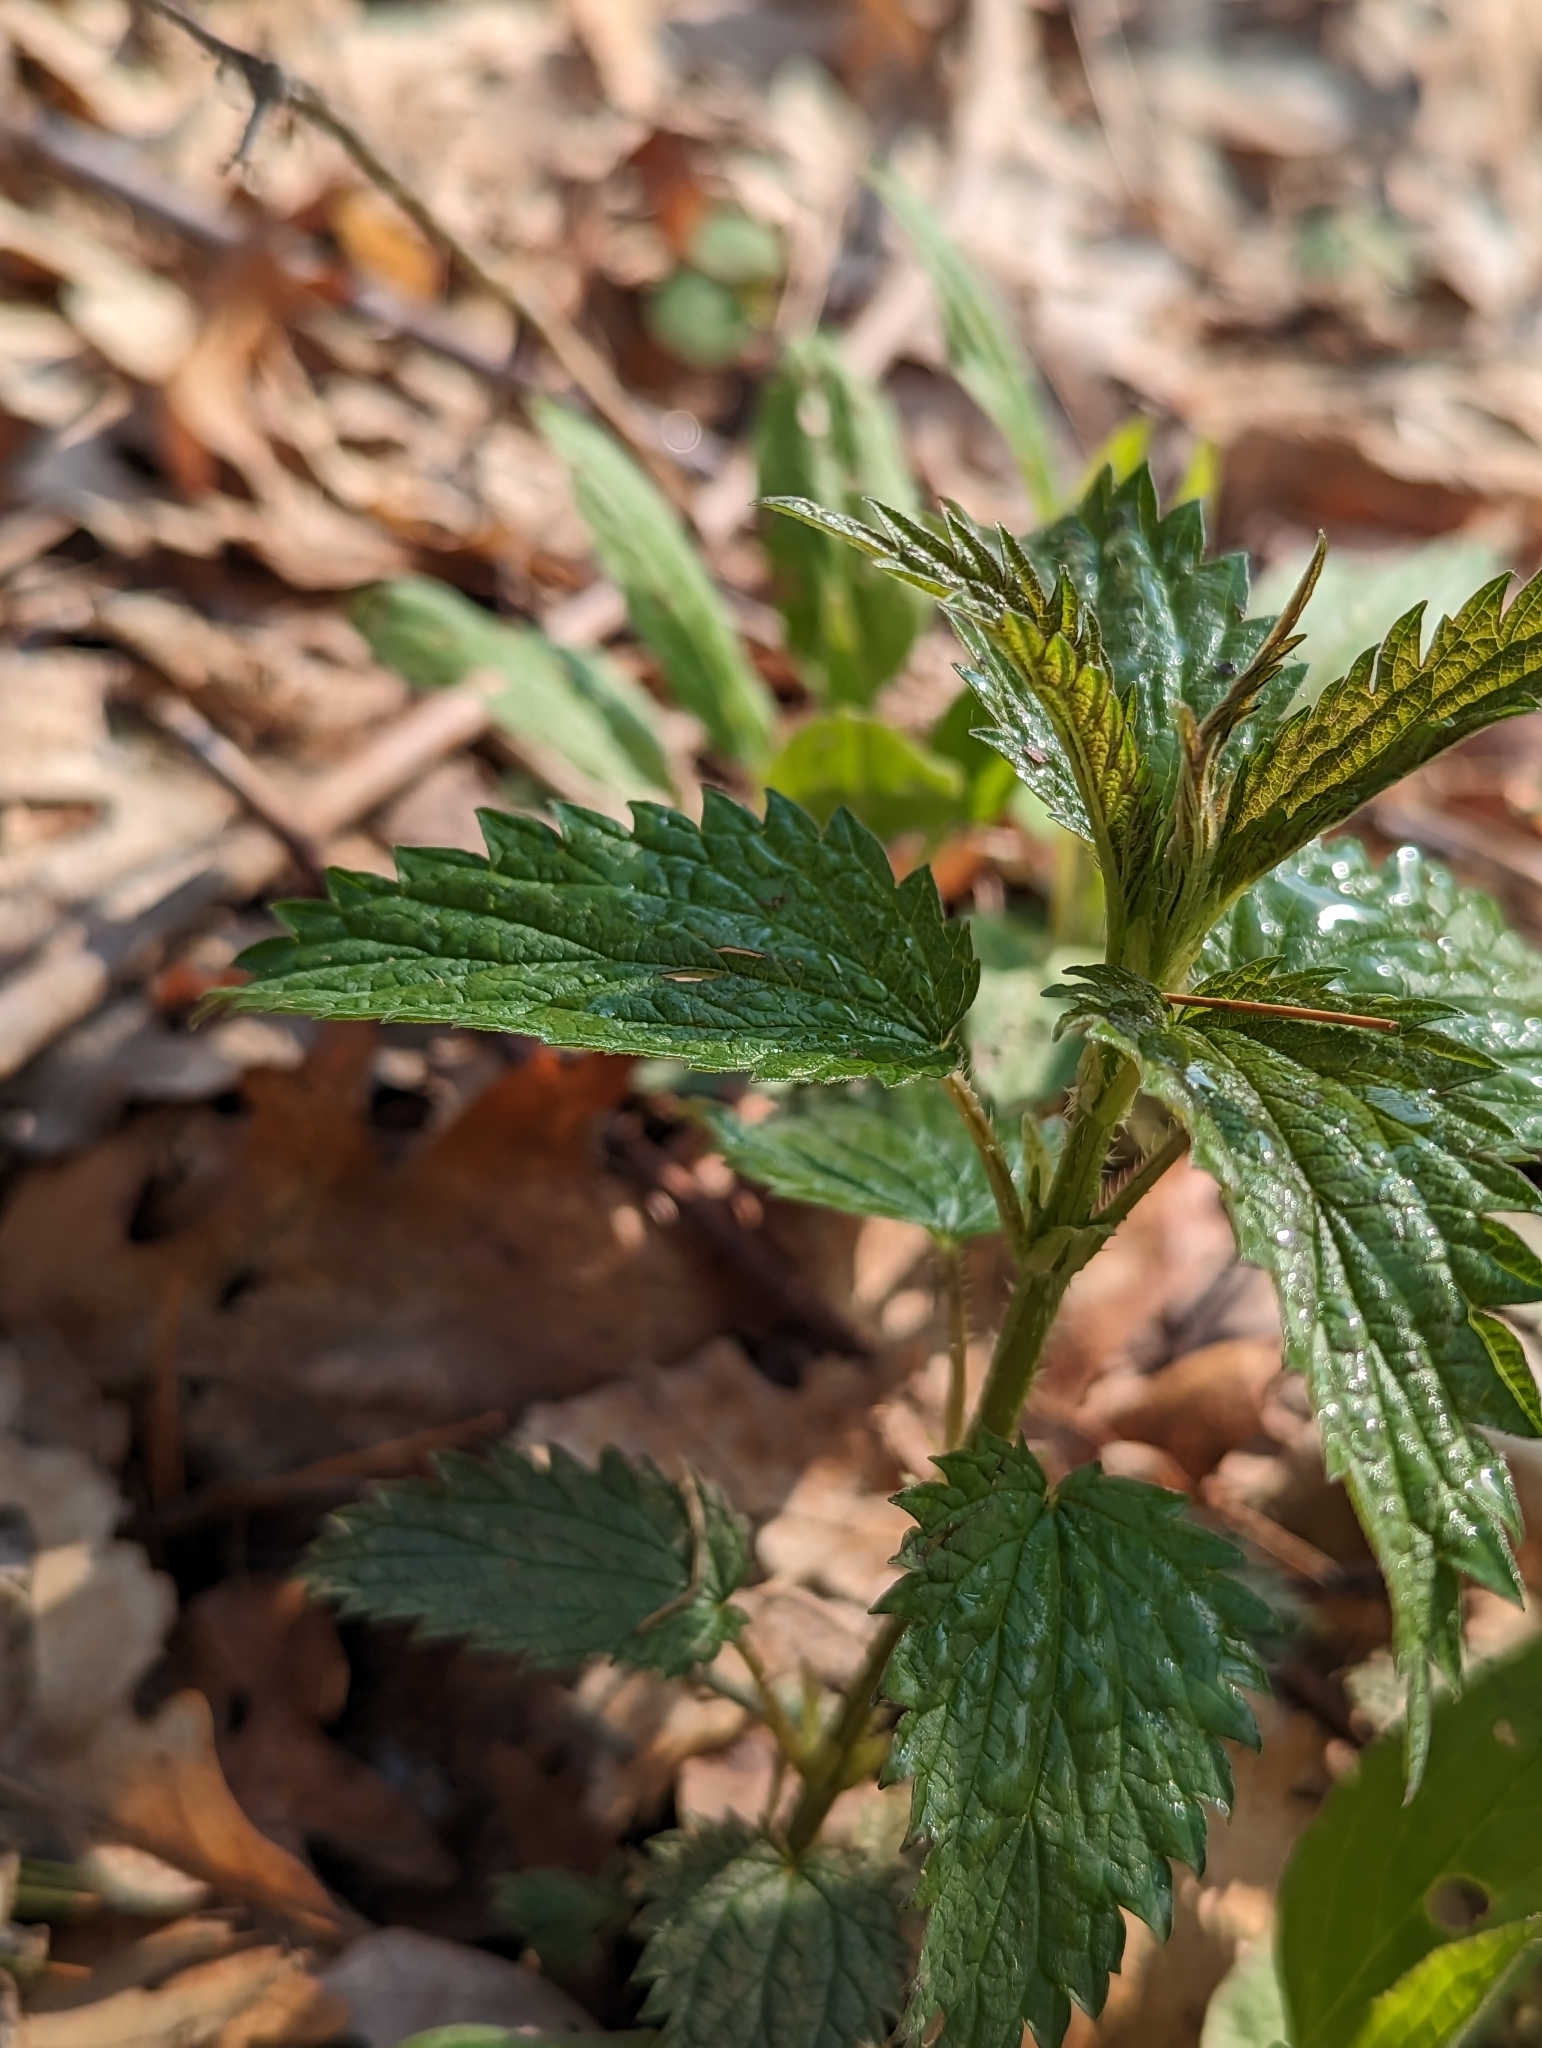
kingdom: Plantae
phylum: Tracheophyta
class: Magnoliopsida
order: Rosales
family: Urticaceae
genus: Urtica
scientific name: Urtica dioica
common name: Common nettle
